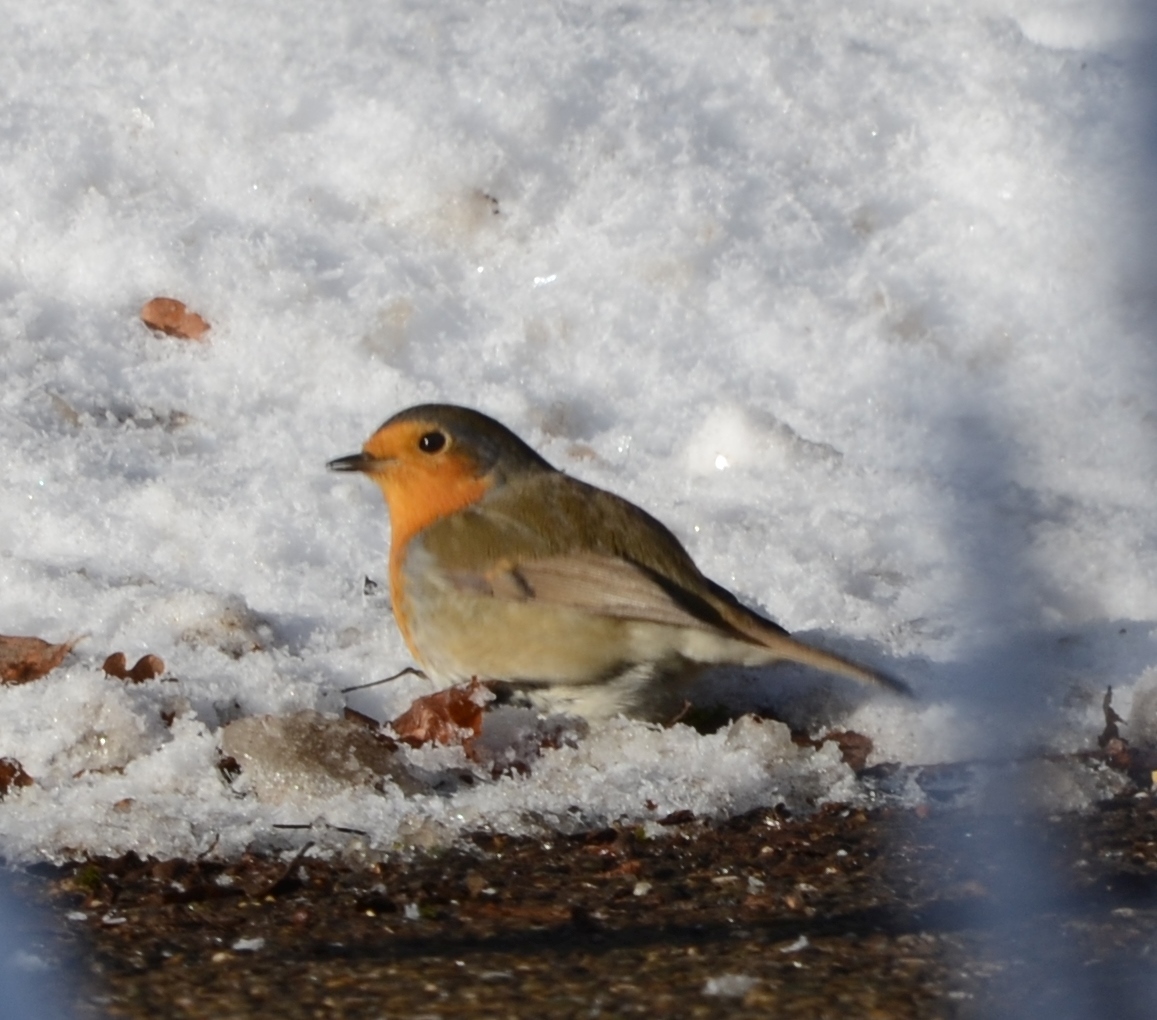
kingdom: Animalia
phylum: Chordata
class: Aves
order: Passeriformes
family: Muscicapidae
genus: Erithacus
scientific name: Erithacus rubecula
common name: European robin
